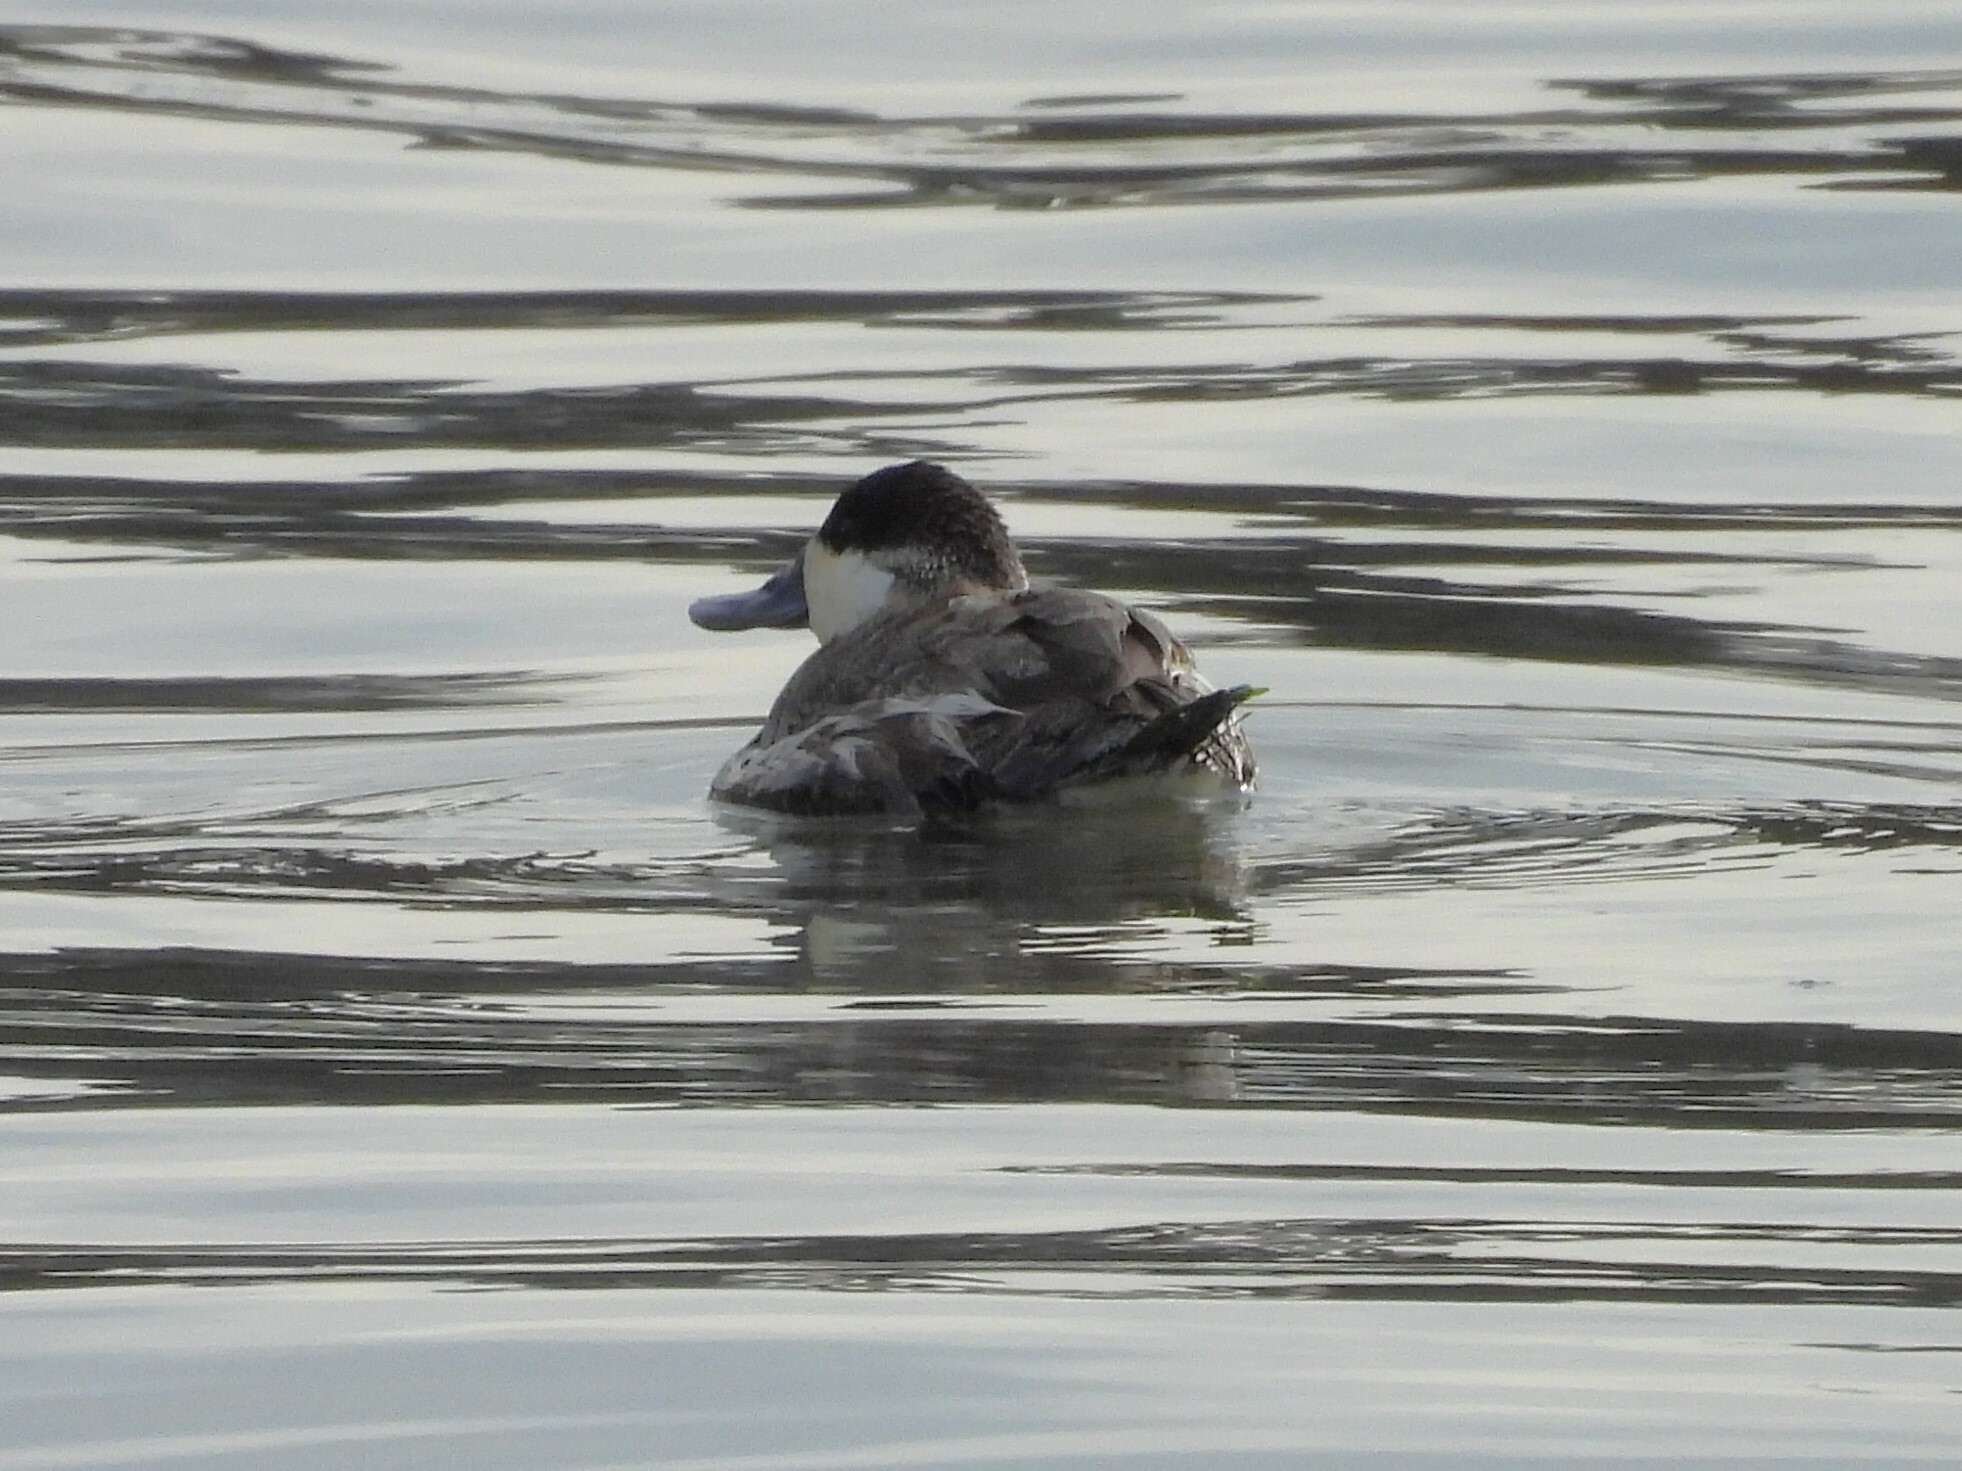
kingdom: Animalia
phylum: Chordata
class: Aves
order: Anseriformes
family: Anatidae
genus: Oxyura
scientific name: Oxyura jamaicensis
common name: Ruddy duck
